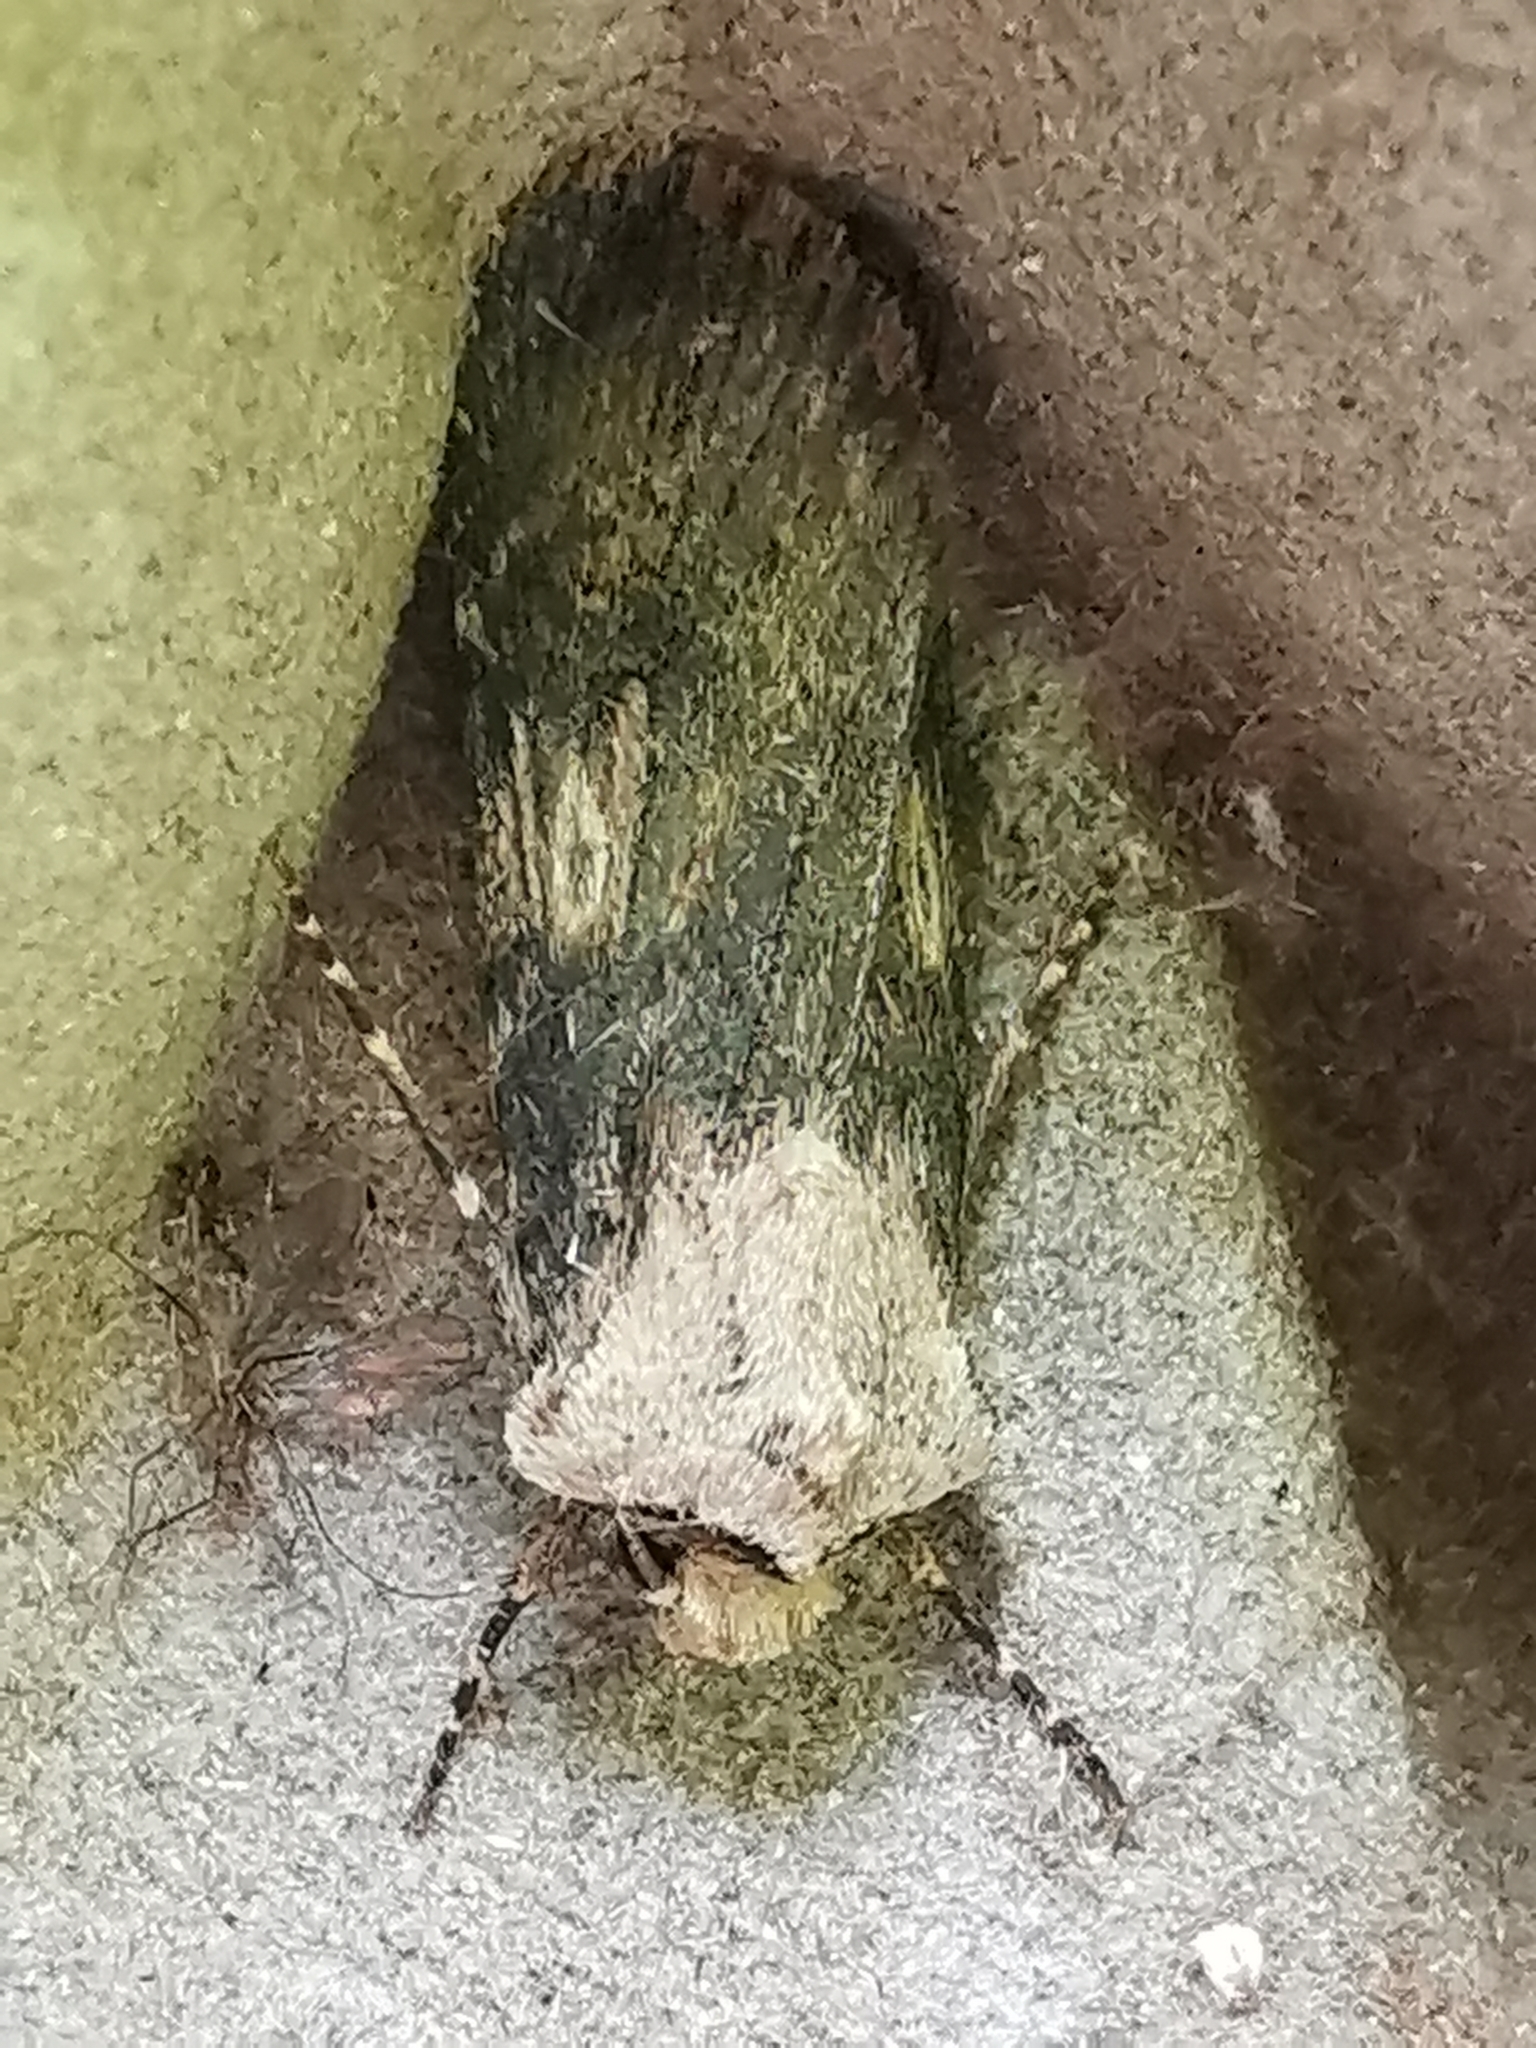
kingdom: Animalia
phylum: Arthropoda
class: Insecta
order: Lepidoptera
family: Noctuidae
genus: Agrotis
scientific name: Agrotis puta
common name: Shuttle-shaped dart
